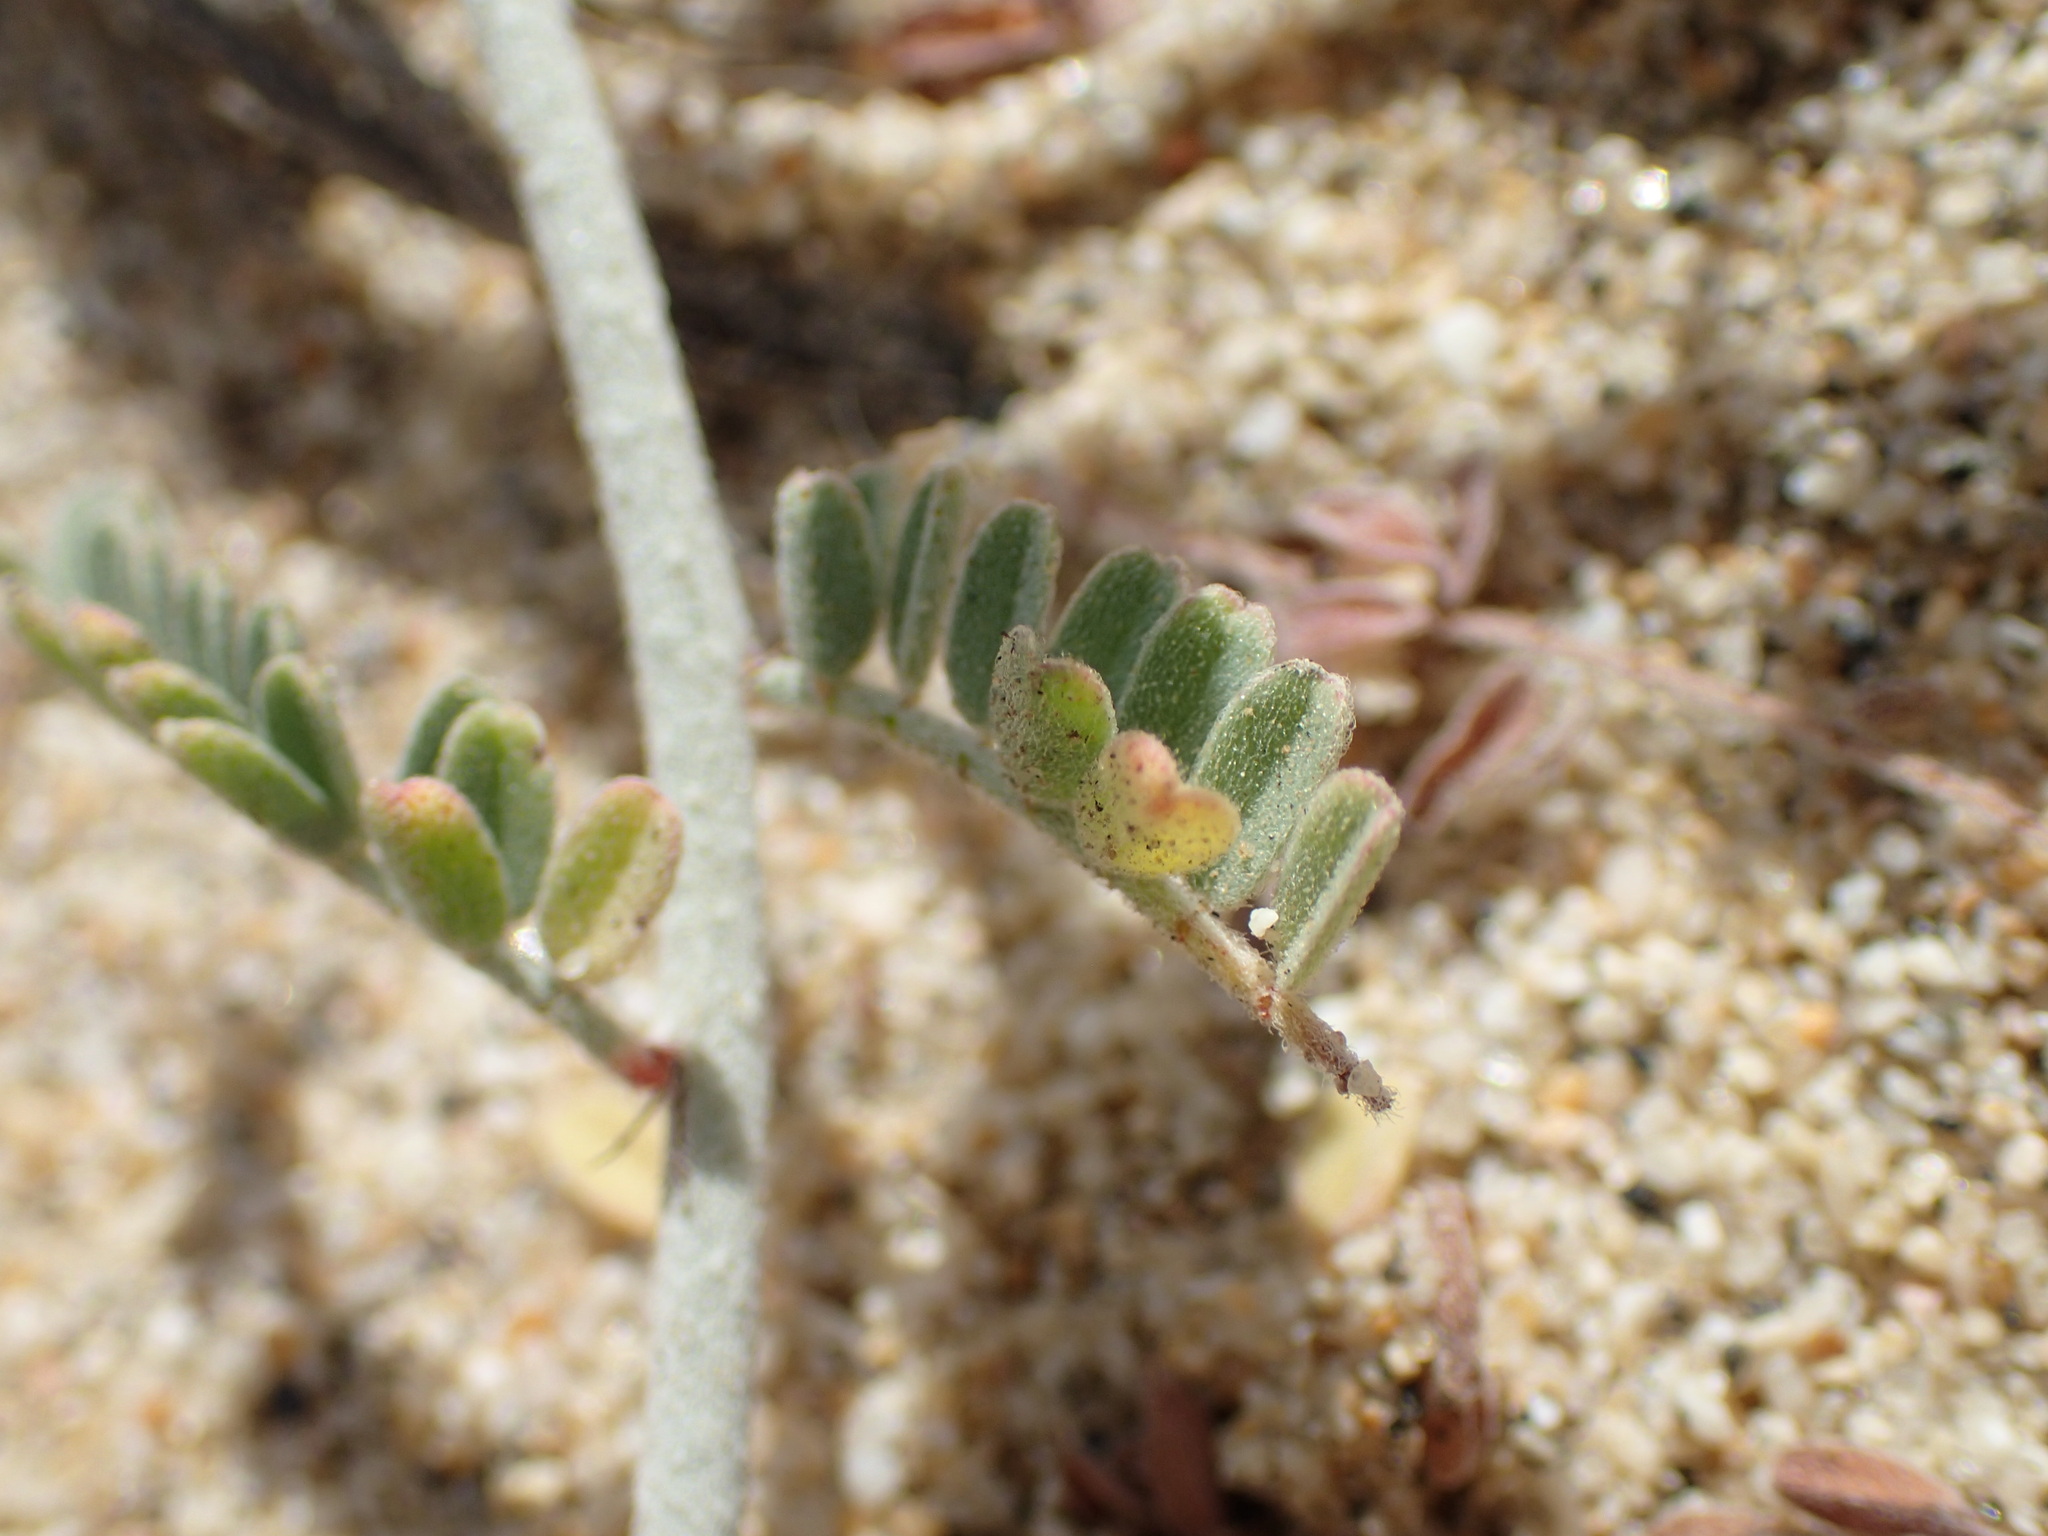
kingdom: Plantae
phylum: Tracheophyta
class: Magnoliopsida
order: Fabales
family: Fabaceae
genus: Marina
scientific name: Marina maritima
